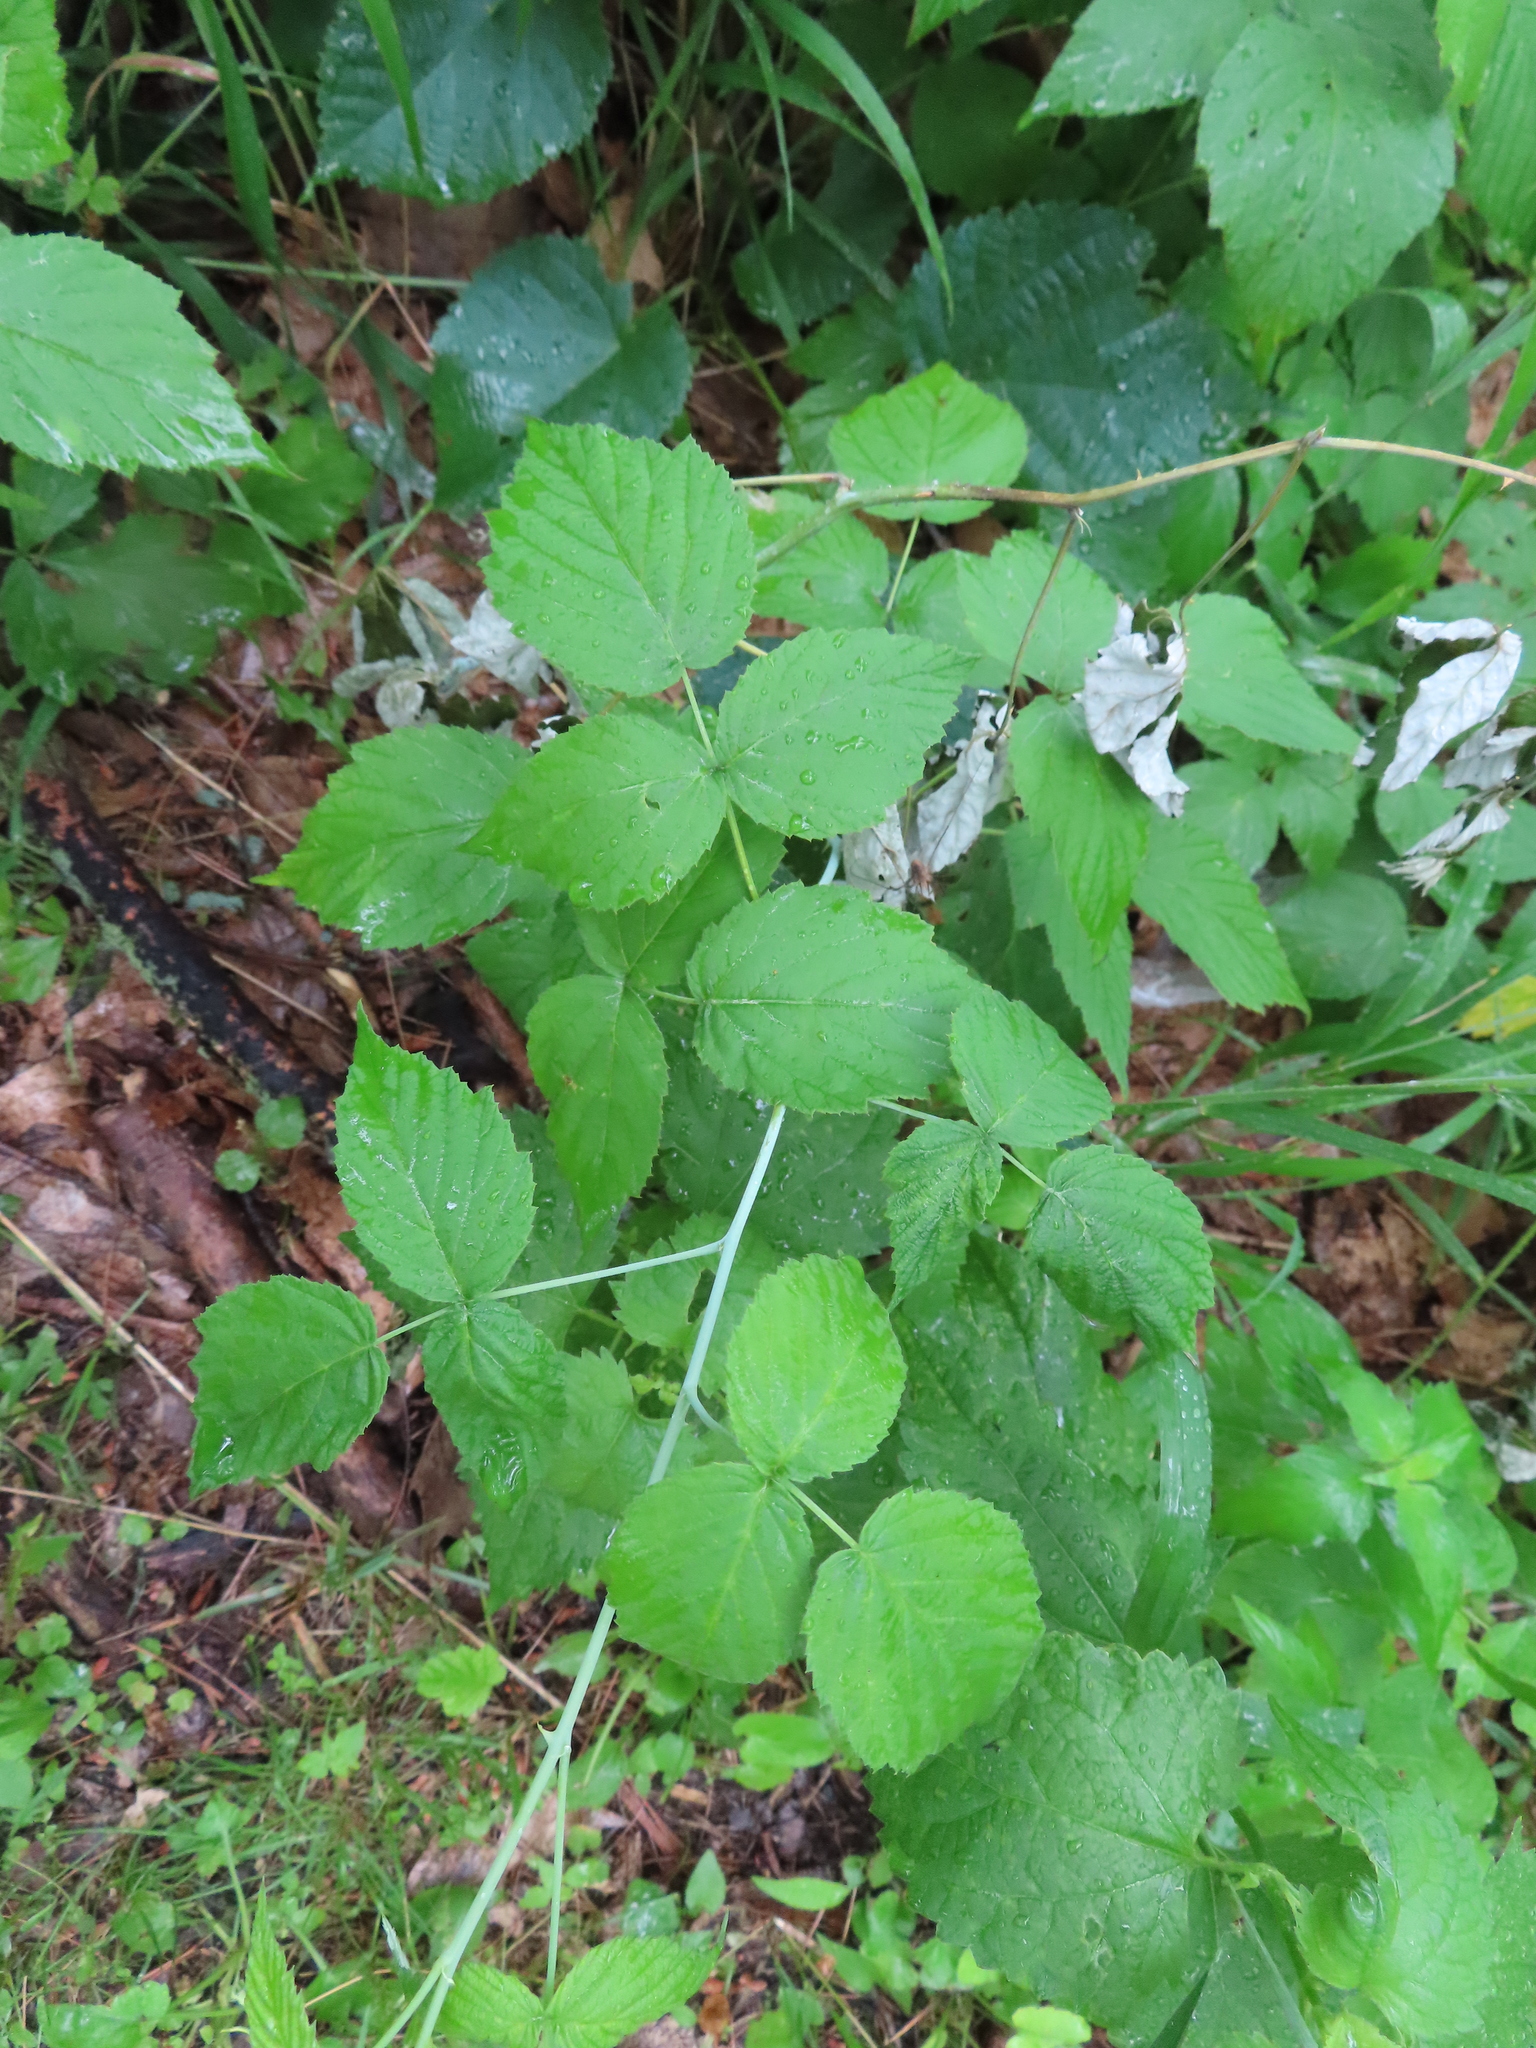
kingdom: Plantae
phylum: Tracheophyta
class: Magnoliopsida
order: Rosales
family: Rosaceae
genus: Rubus
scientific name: Rubus occidentalis
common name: Black raspberry
